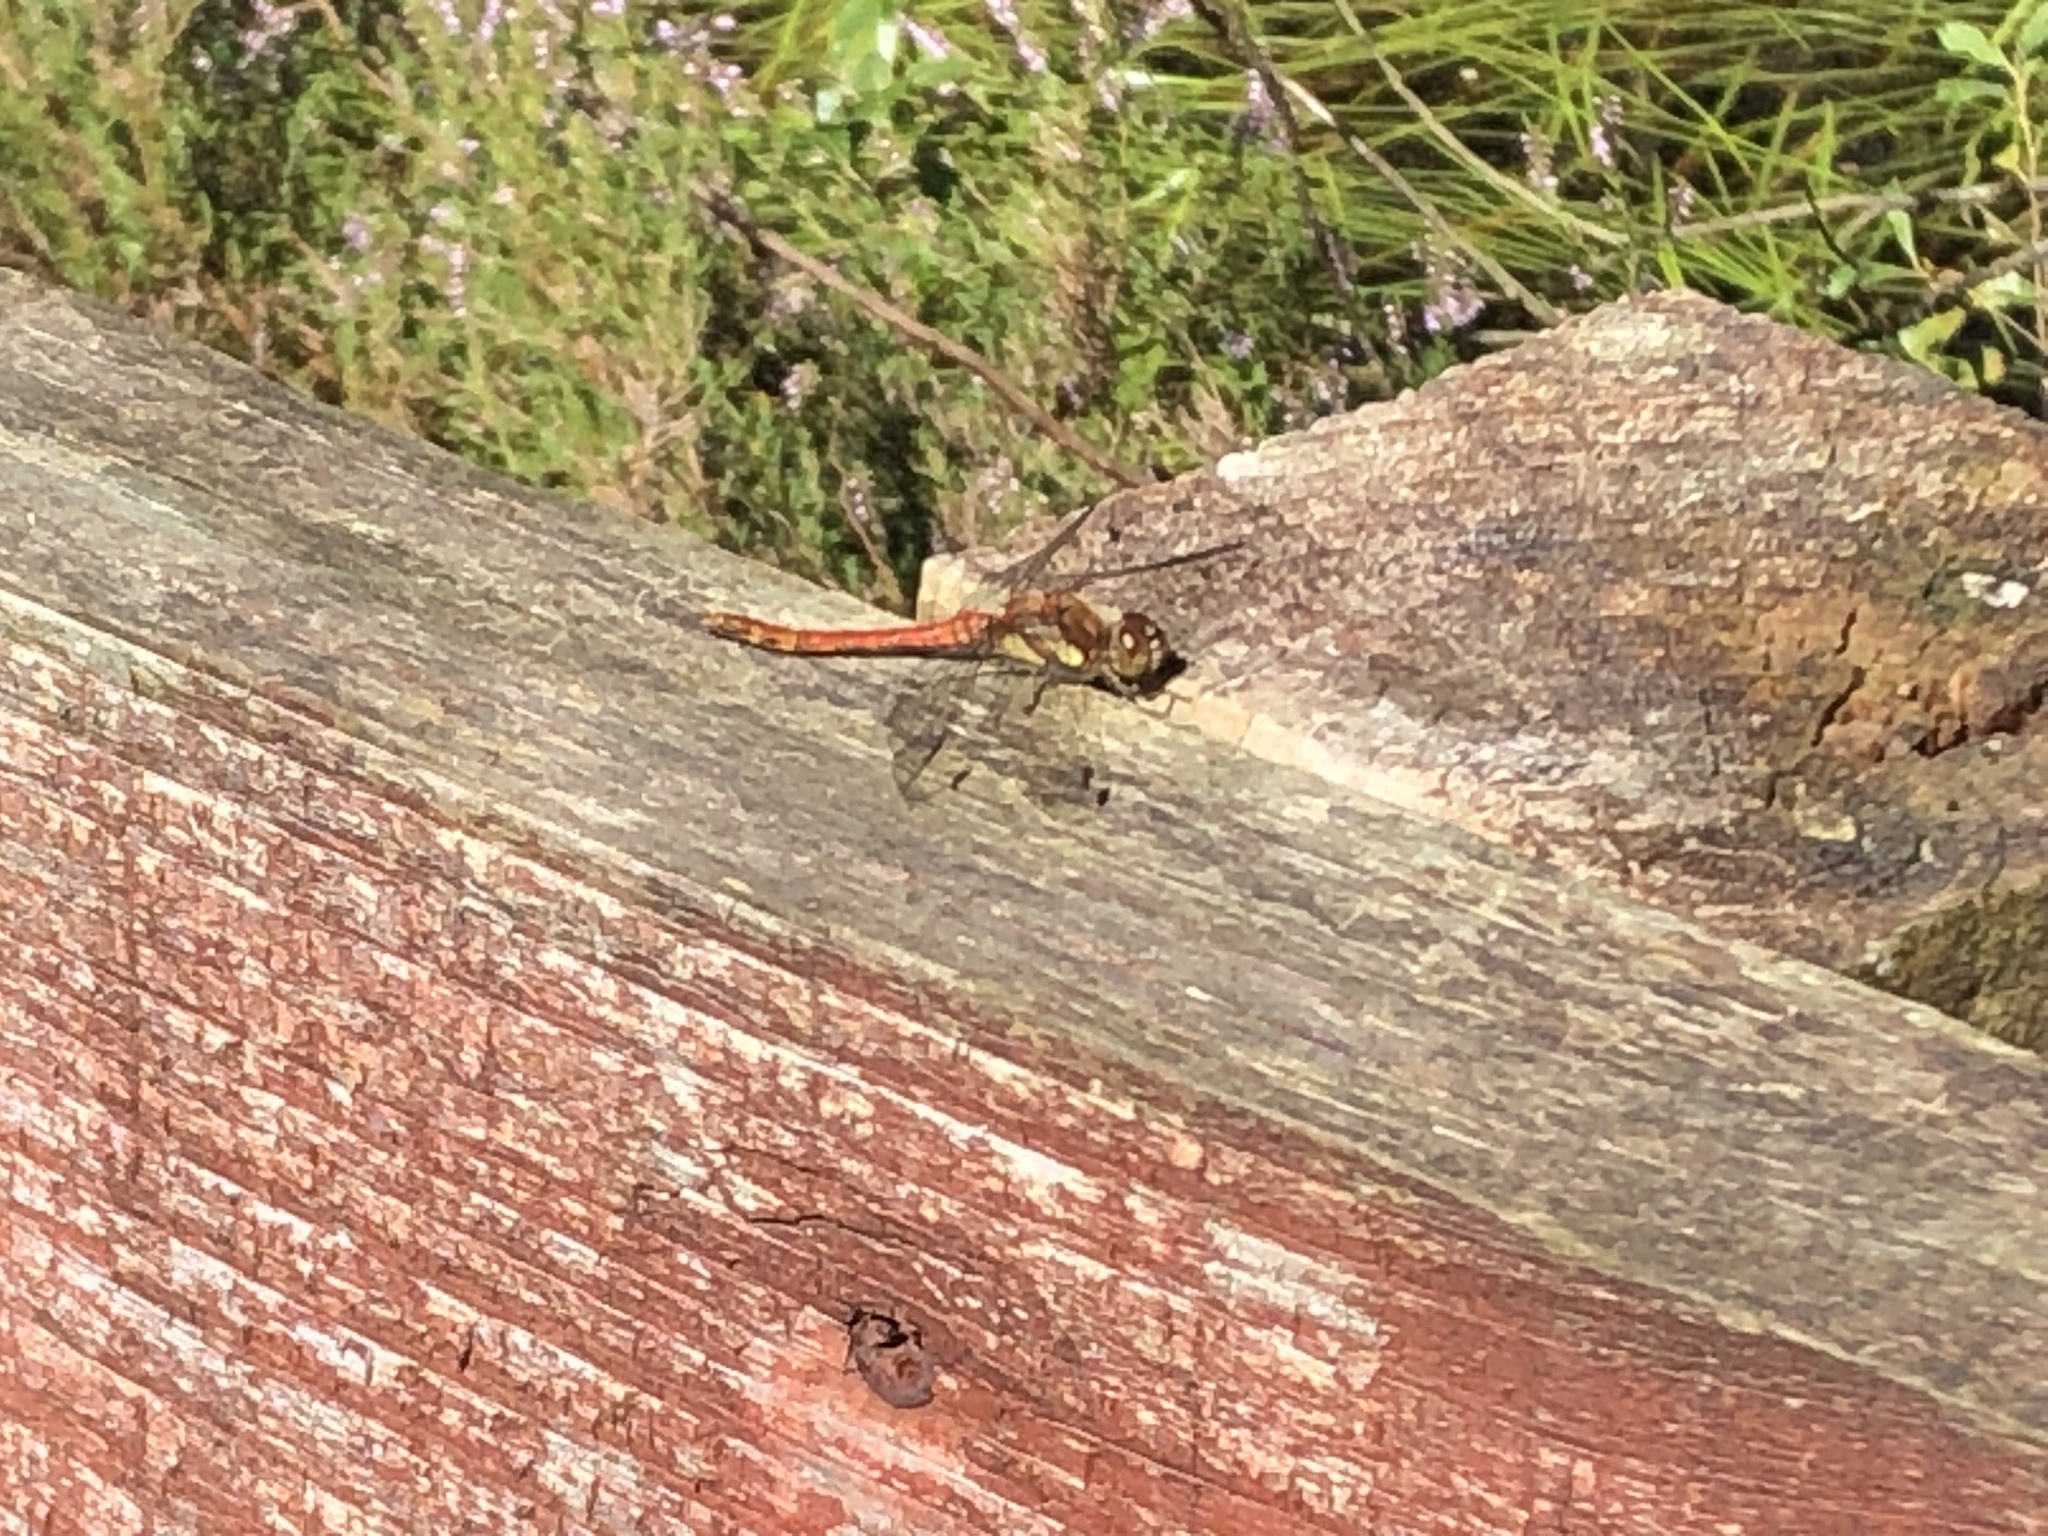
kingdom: Animalia
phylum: Arthropoda
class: Insecta
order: Odonata
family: Libellulidae
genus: Sympetrum
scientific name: Sympetrum striolatum
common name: Common darter
